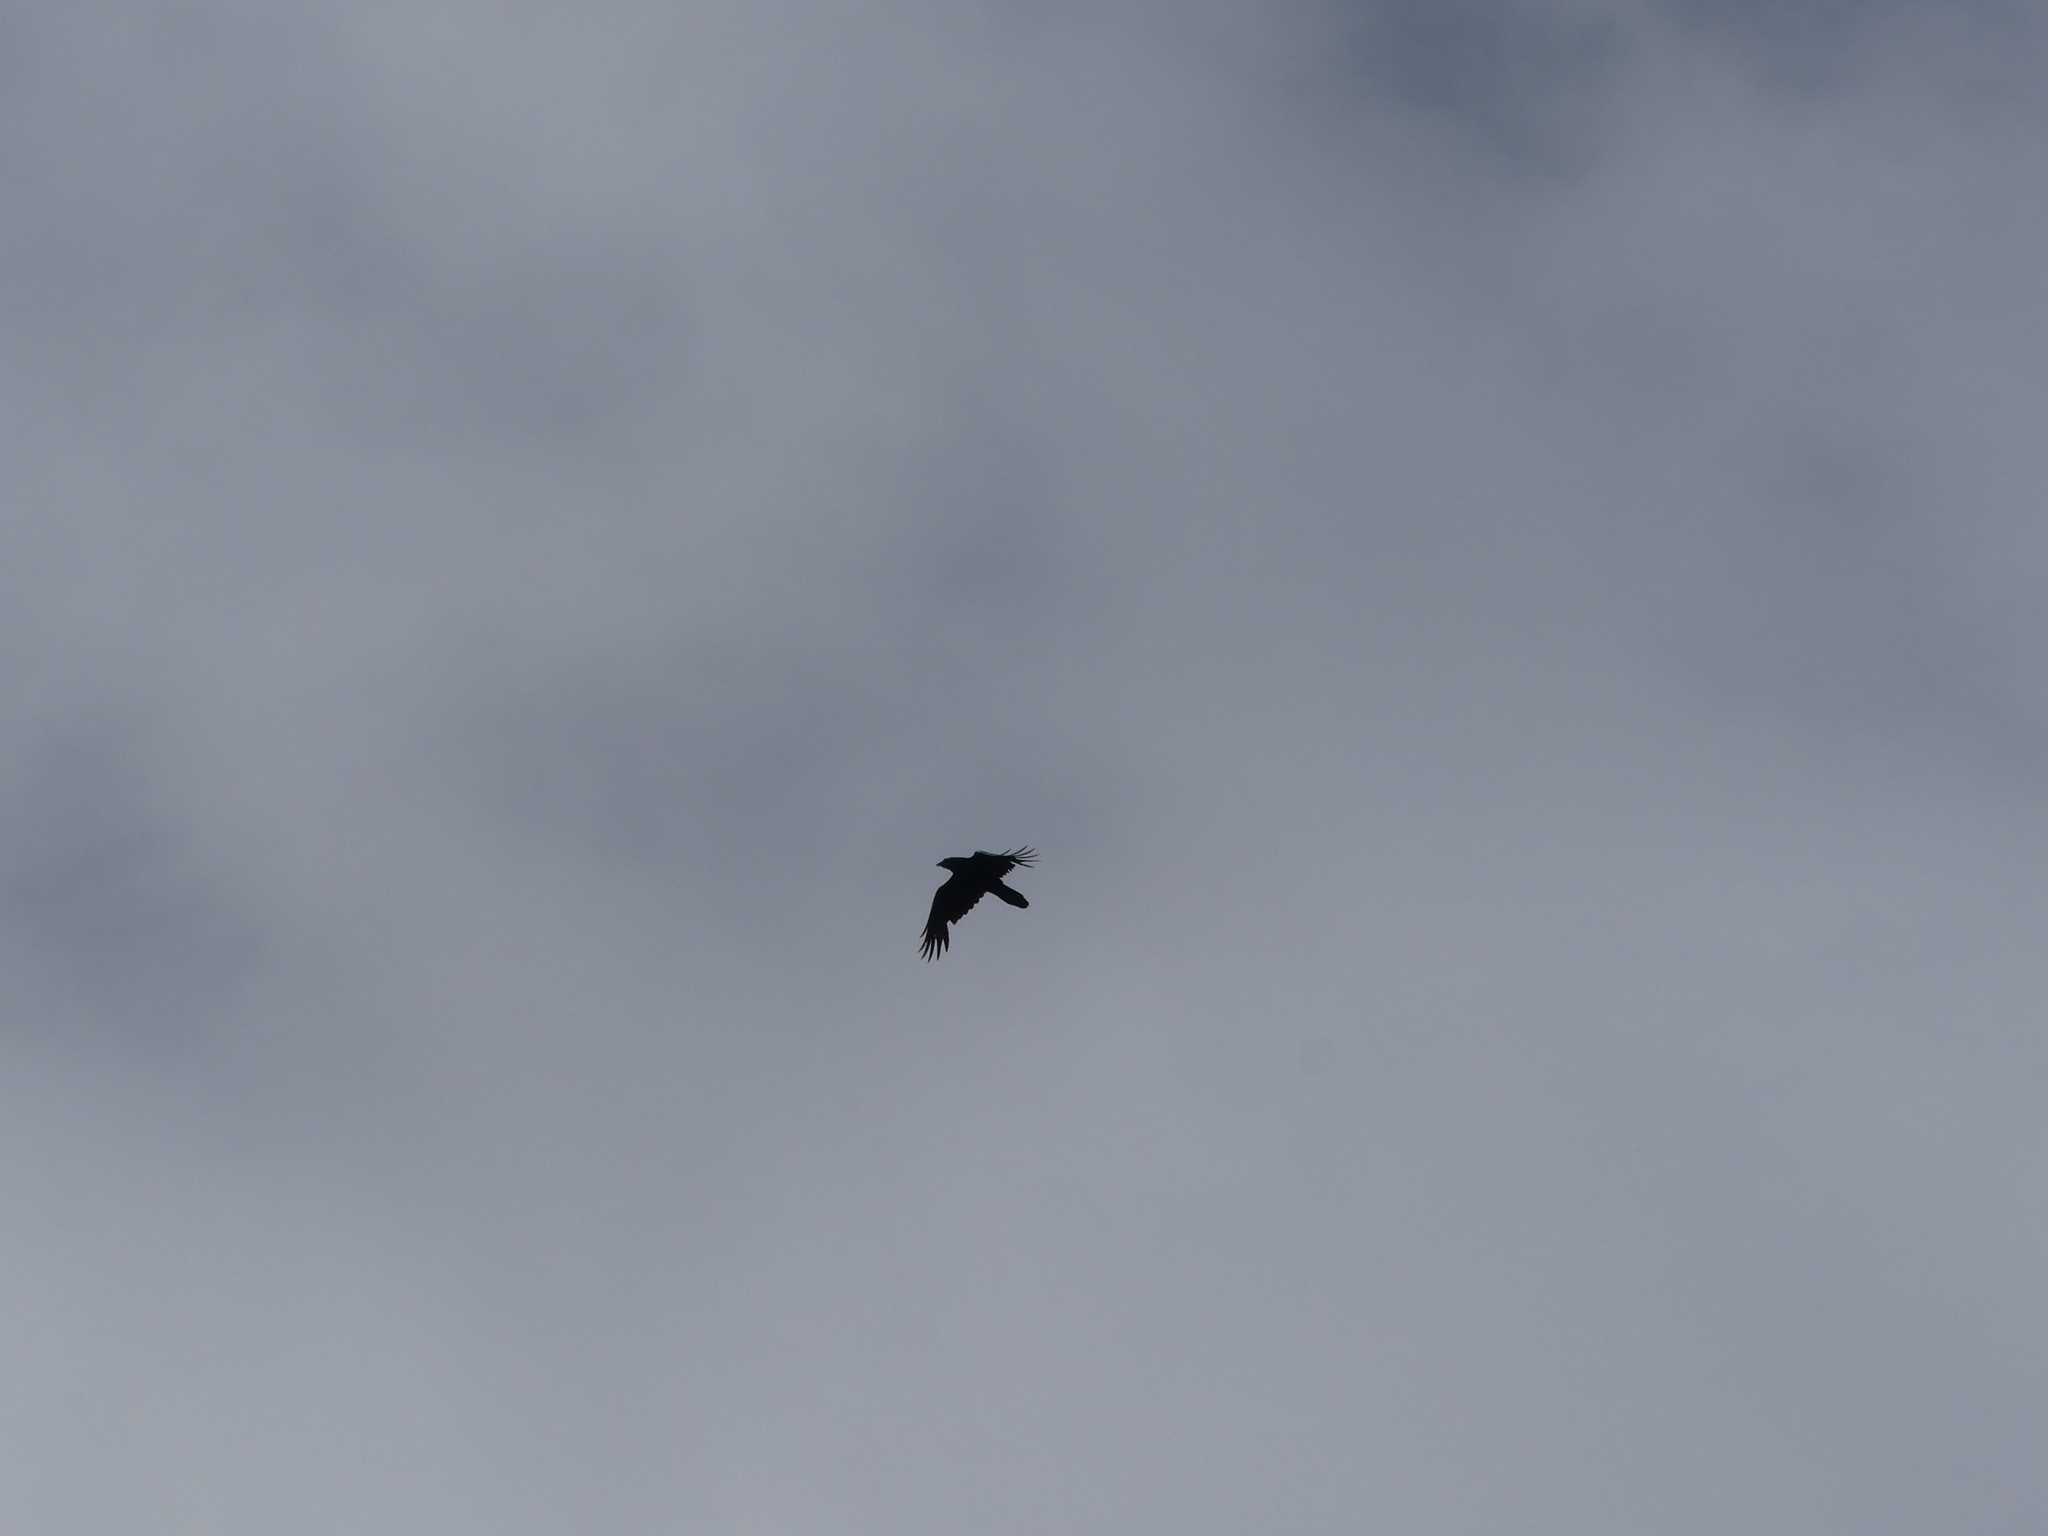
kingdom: Animalia
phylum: Chordata
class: Aves
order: Passeriformes
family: Corvidae
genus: Corvus
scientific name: Corvus corax
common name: Common raven
